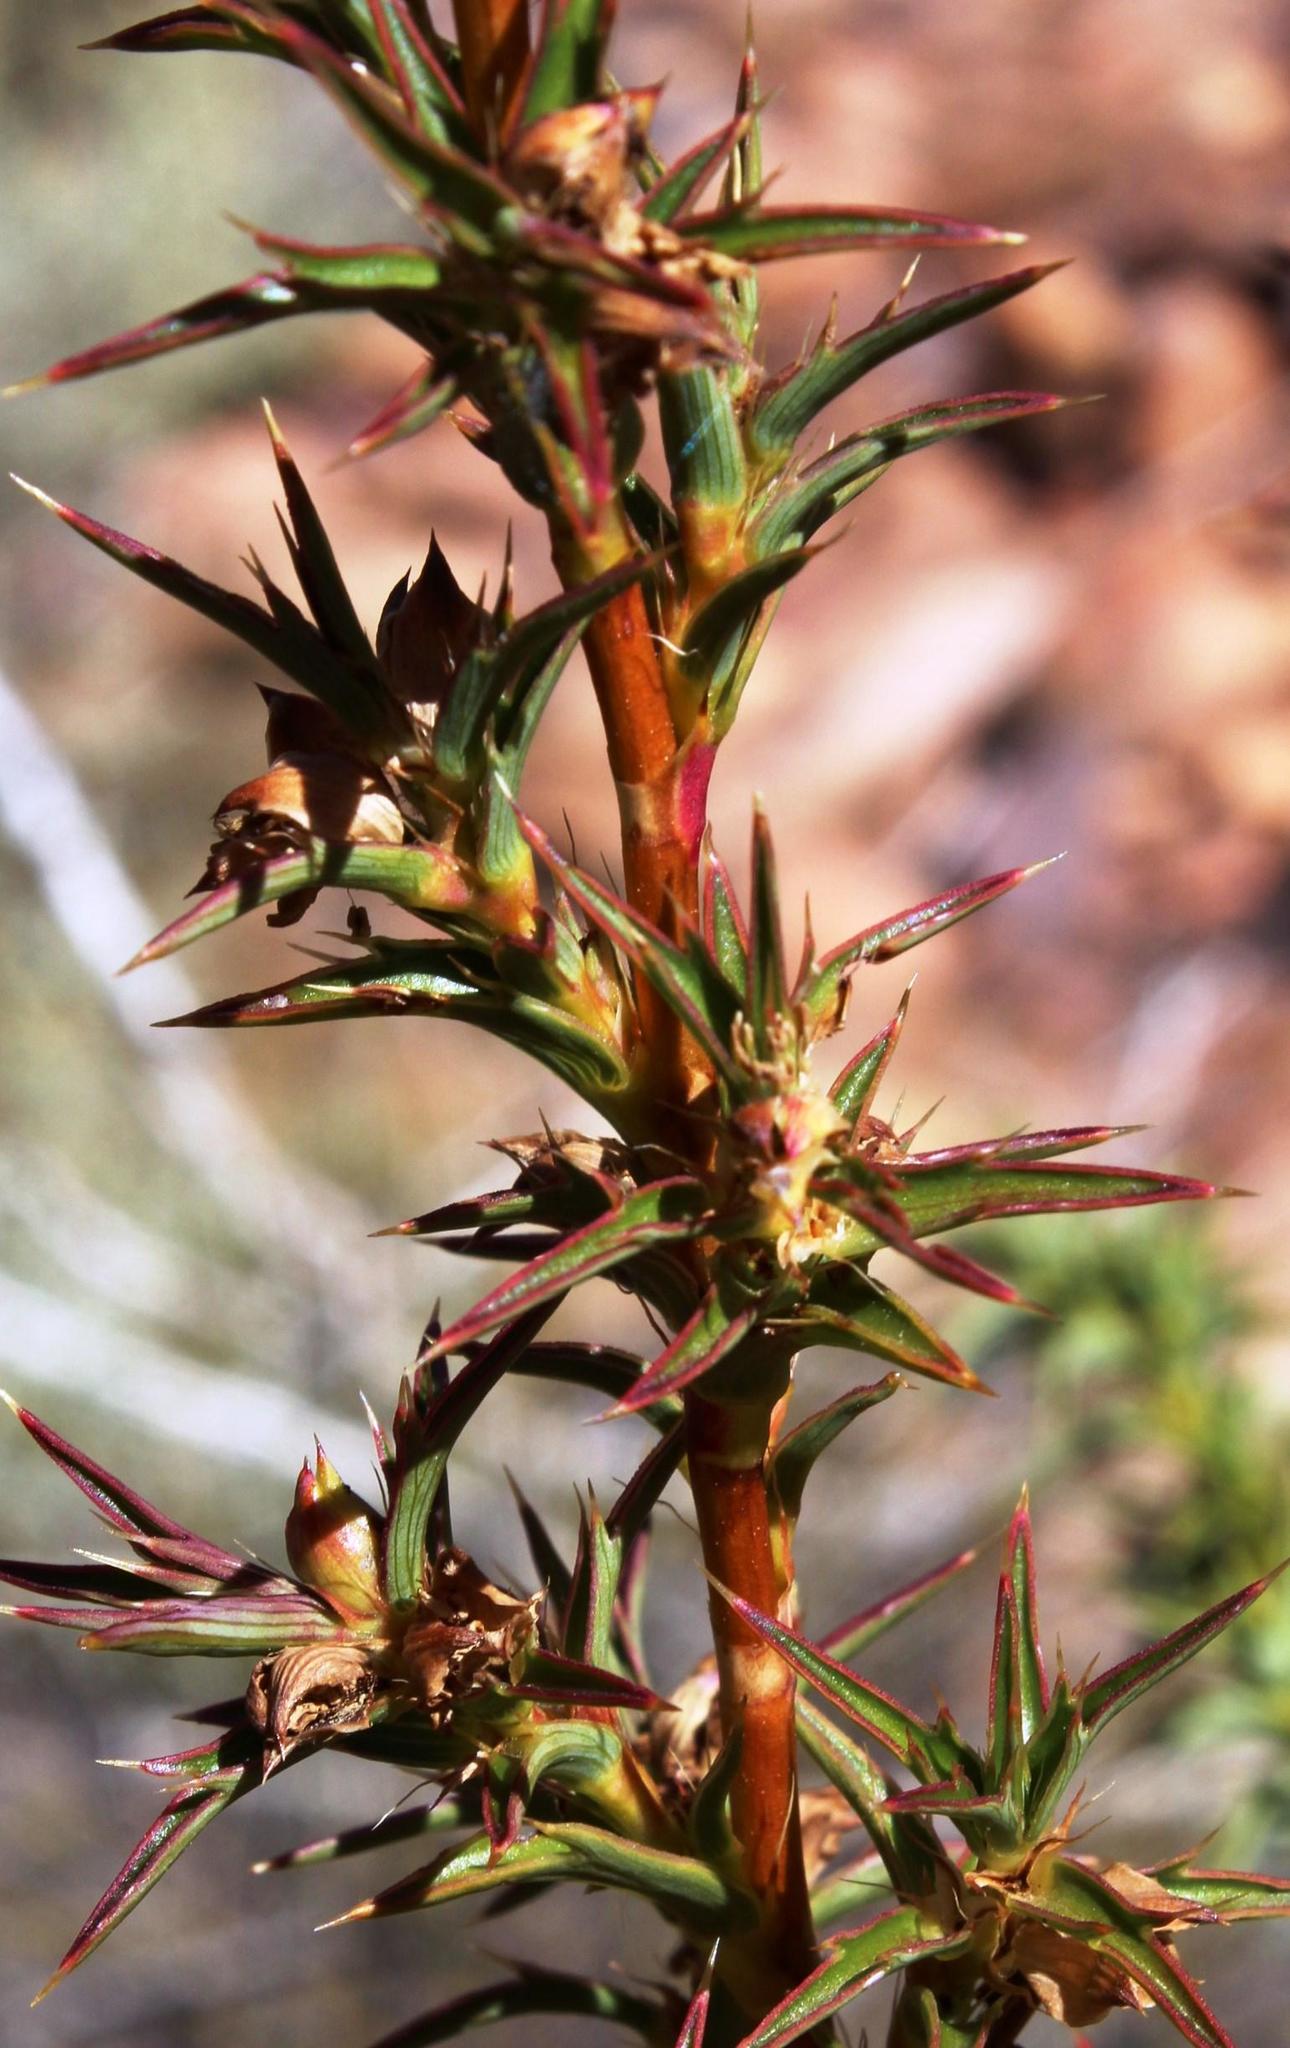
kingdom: Plantae
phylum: Tracheophyta
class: Magnoliopsida
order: Rosales
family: Rosaceae
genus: Cliffortia
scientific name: Cliffortia acanthophylla
